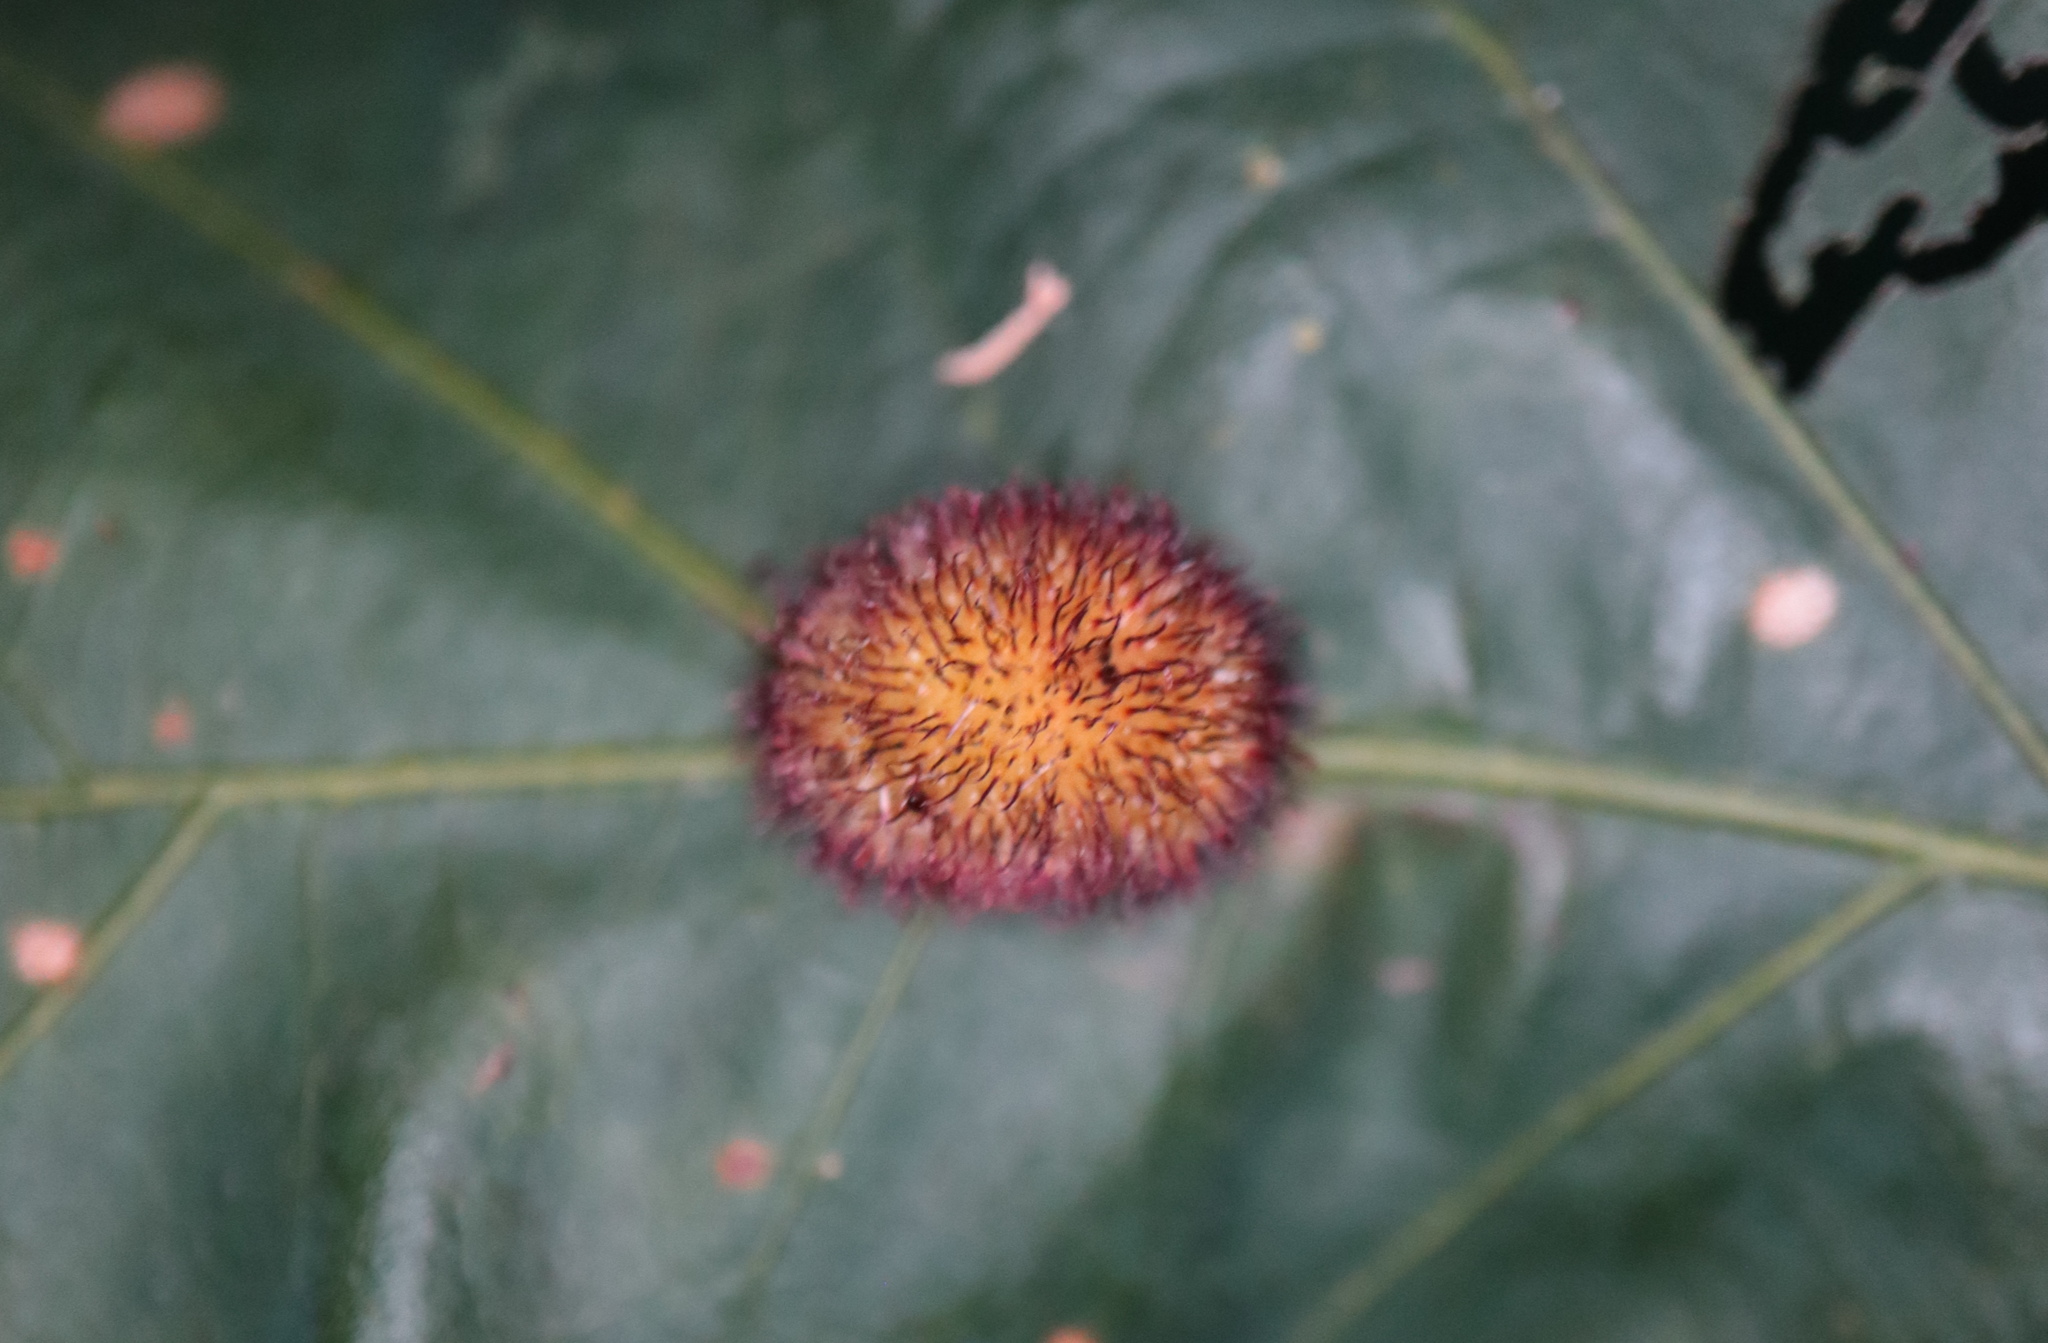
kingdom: Animalia
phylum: Arthropoda
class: Insecta
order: Hymenoptera
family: Cynipidae
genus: Acraspis
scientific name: Acraspis erinacei
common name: Hedgehog gall wasp
